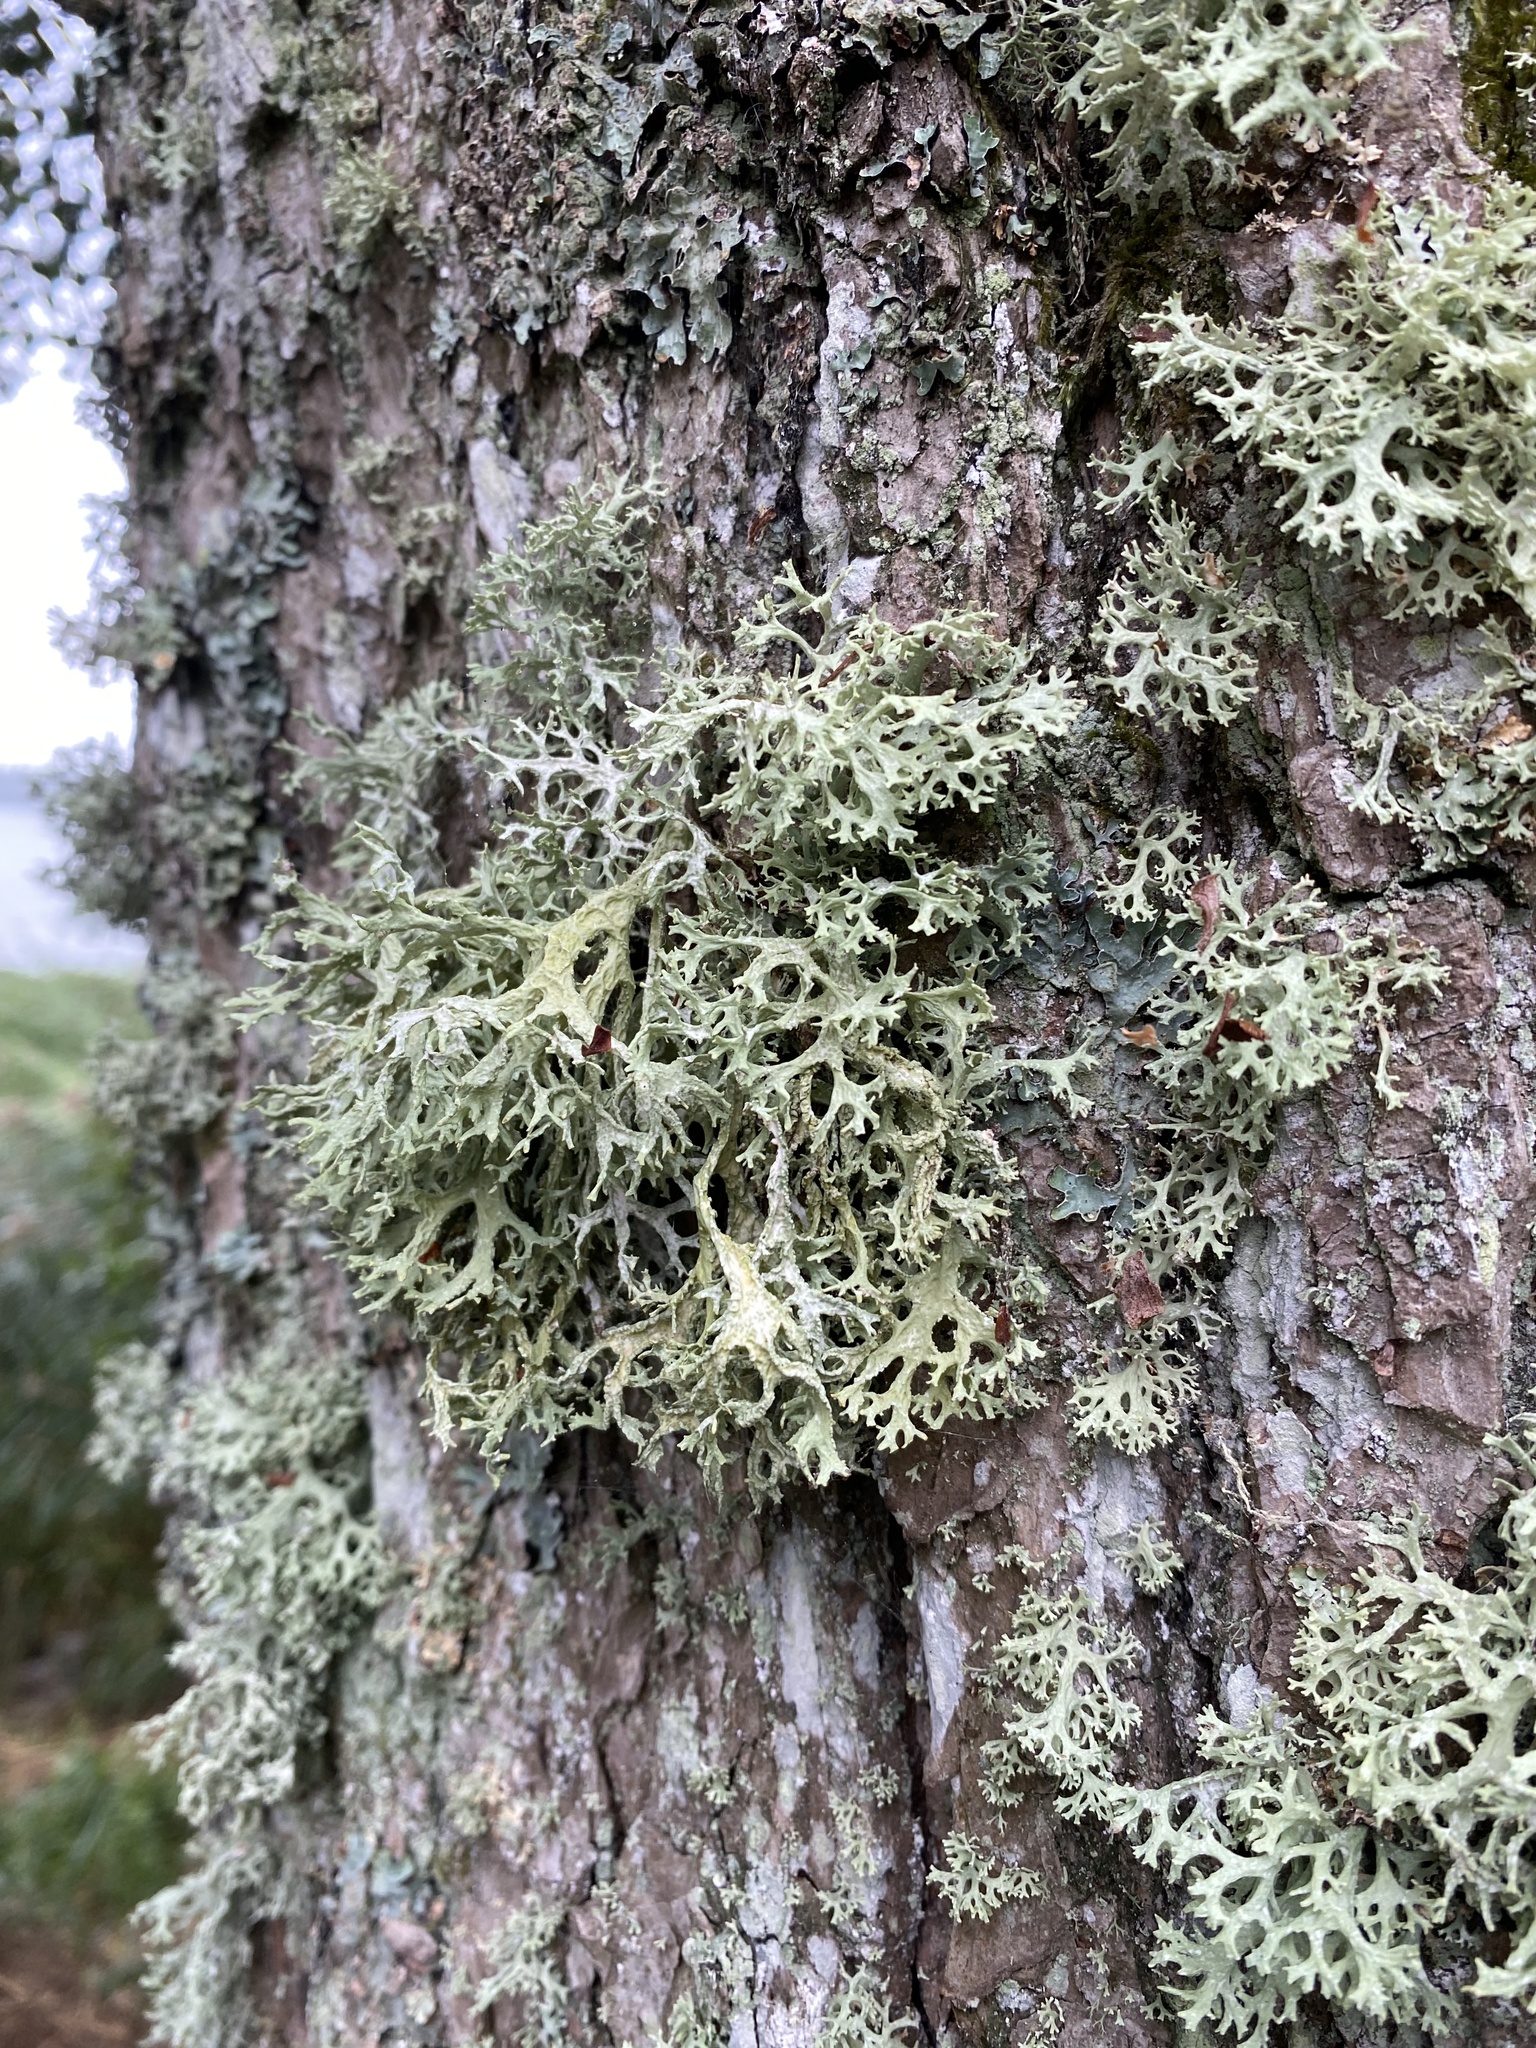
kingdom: Fungi
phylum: Ascomycota
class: Lecanoromycetes
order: Lecanorales
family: Parmeliaceae
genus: Evernia
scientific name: Evernia prunastri
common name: Oak moss
